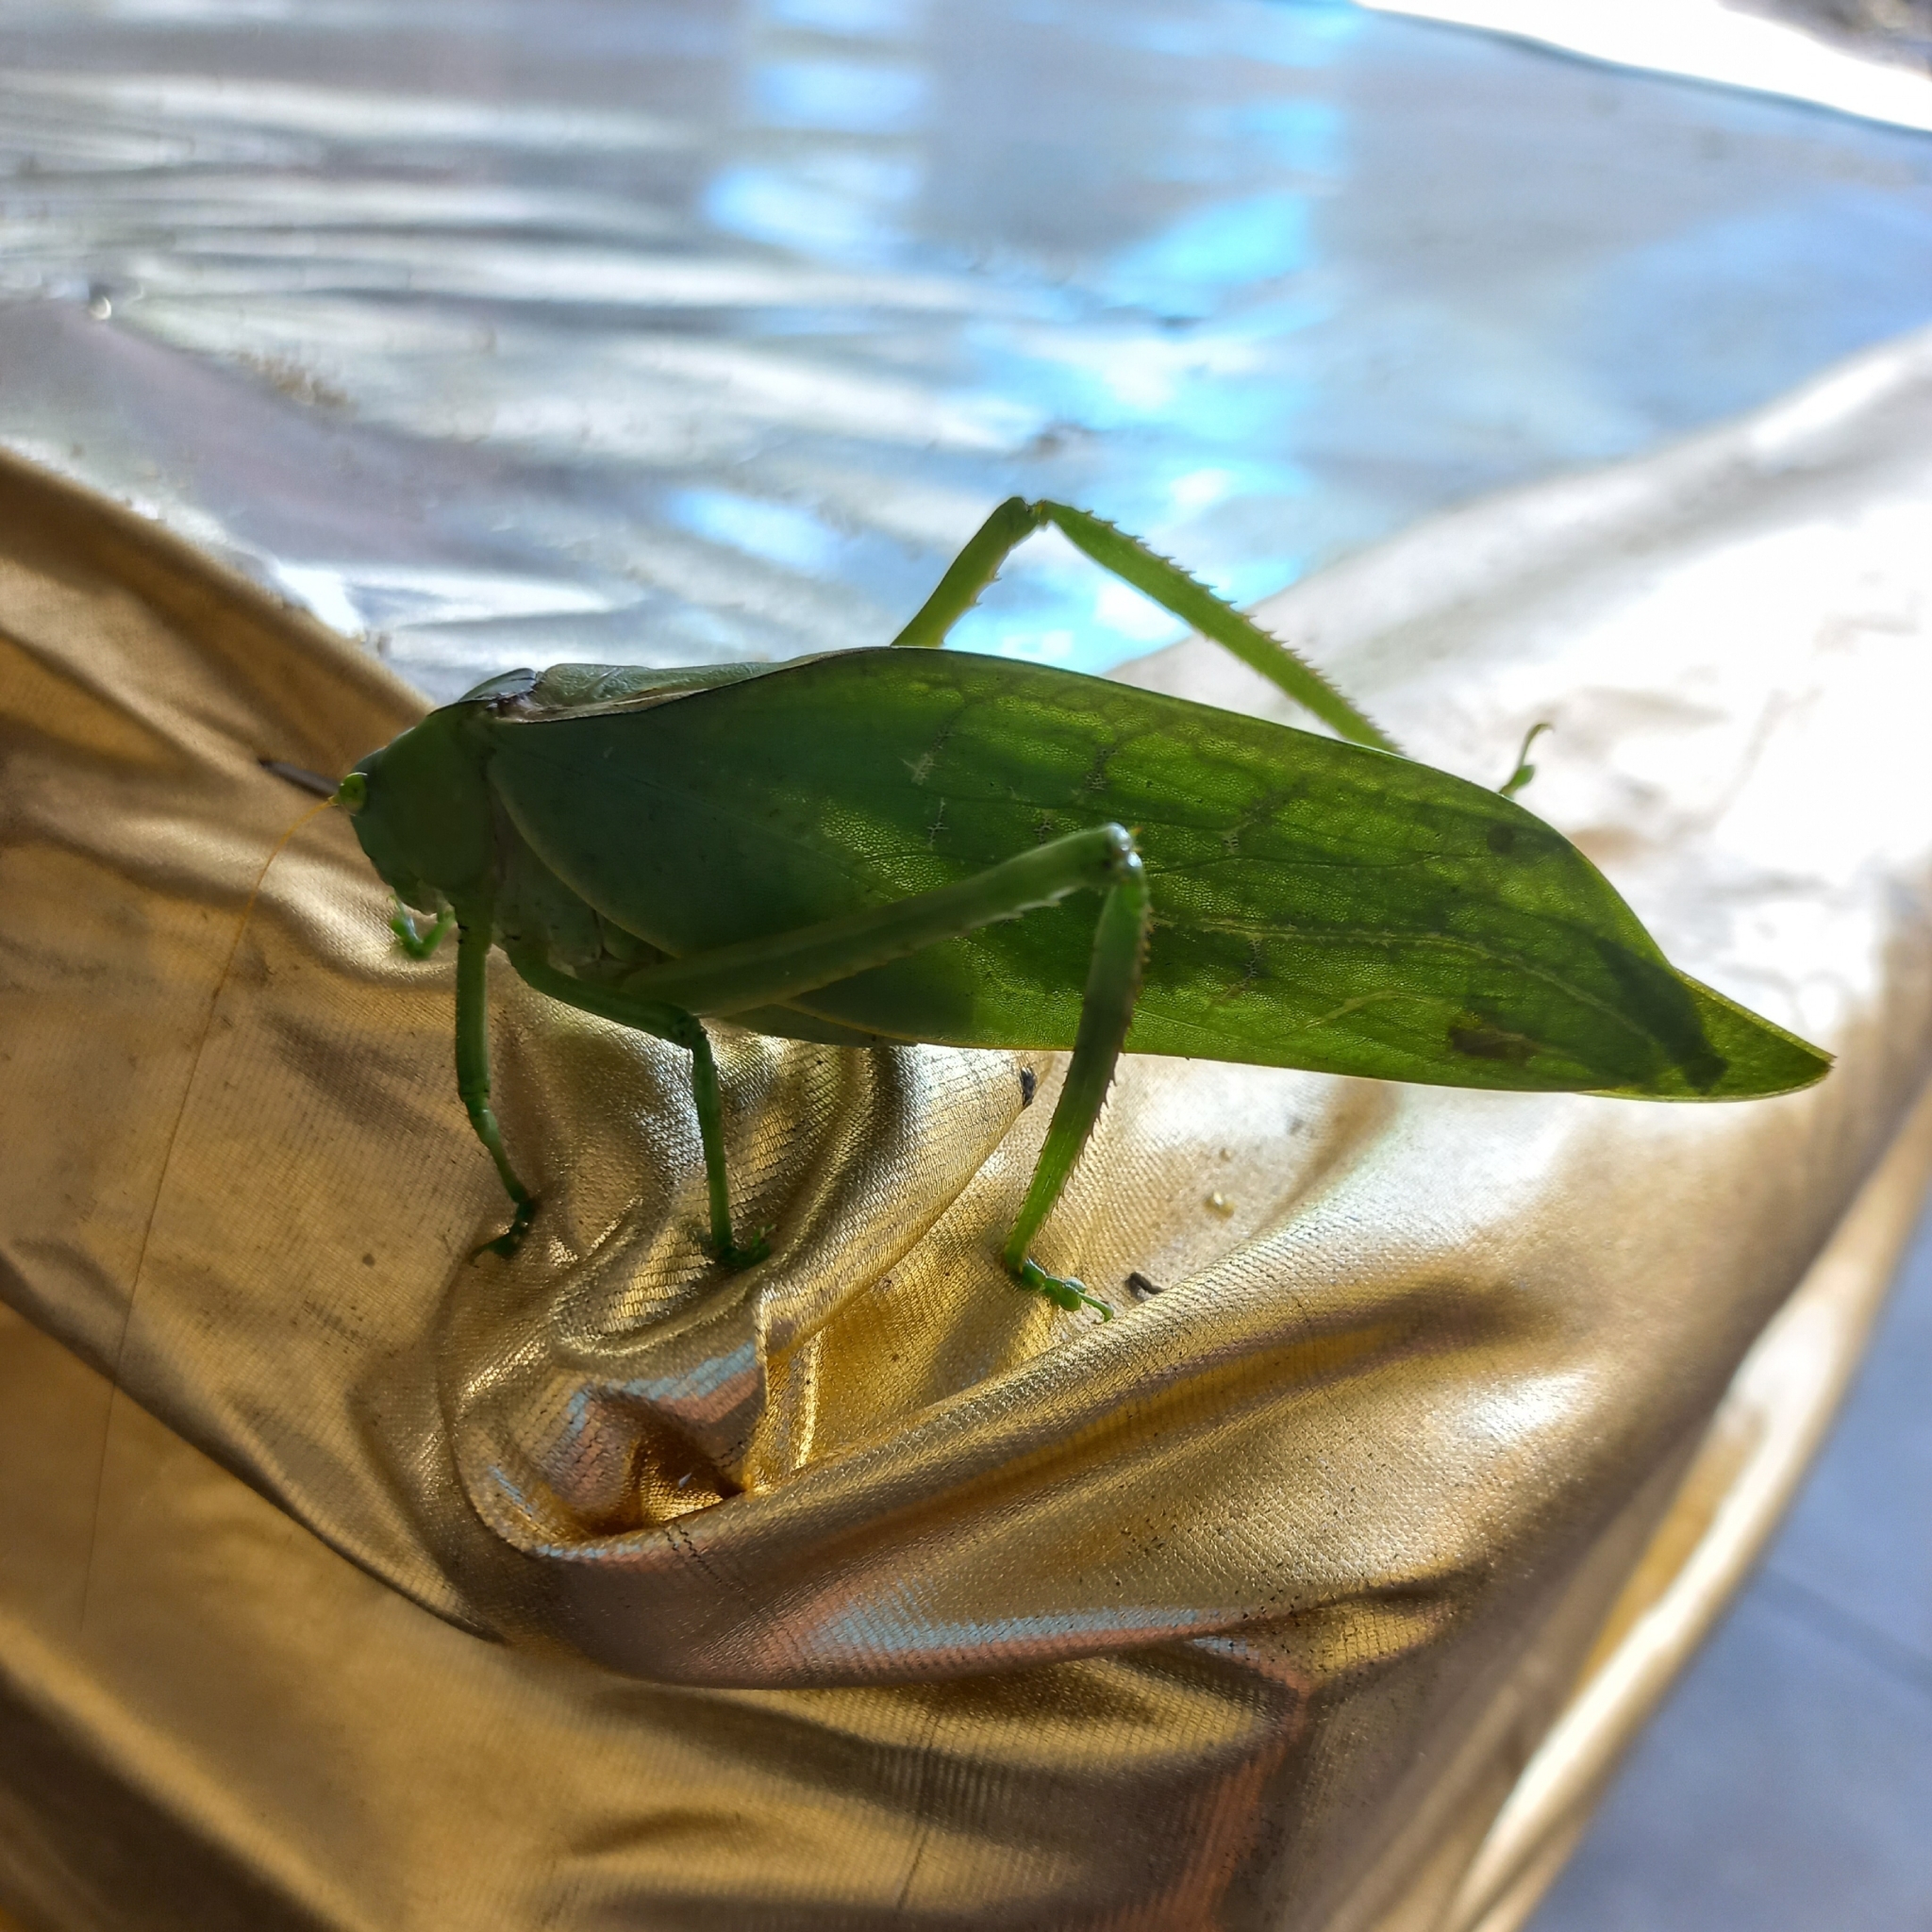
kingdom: Animalia
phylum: Arthropoda
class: Insecta
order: Orthoptera
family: Tettigoniidae
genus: Stilpnochlora
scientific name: Stilpnochlora azteca
